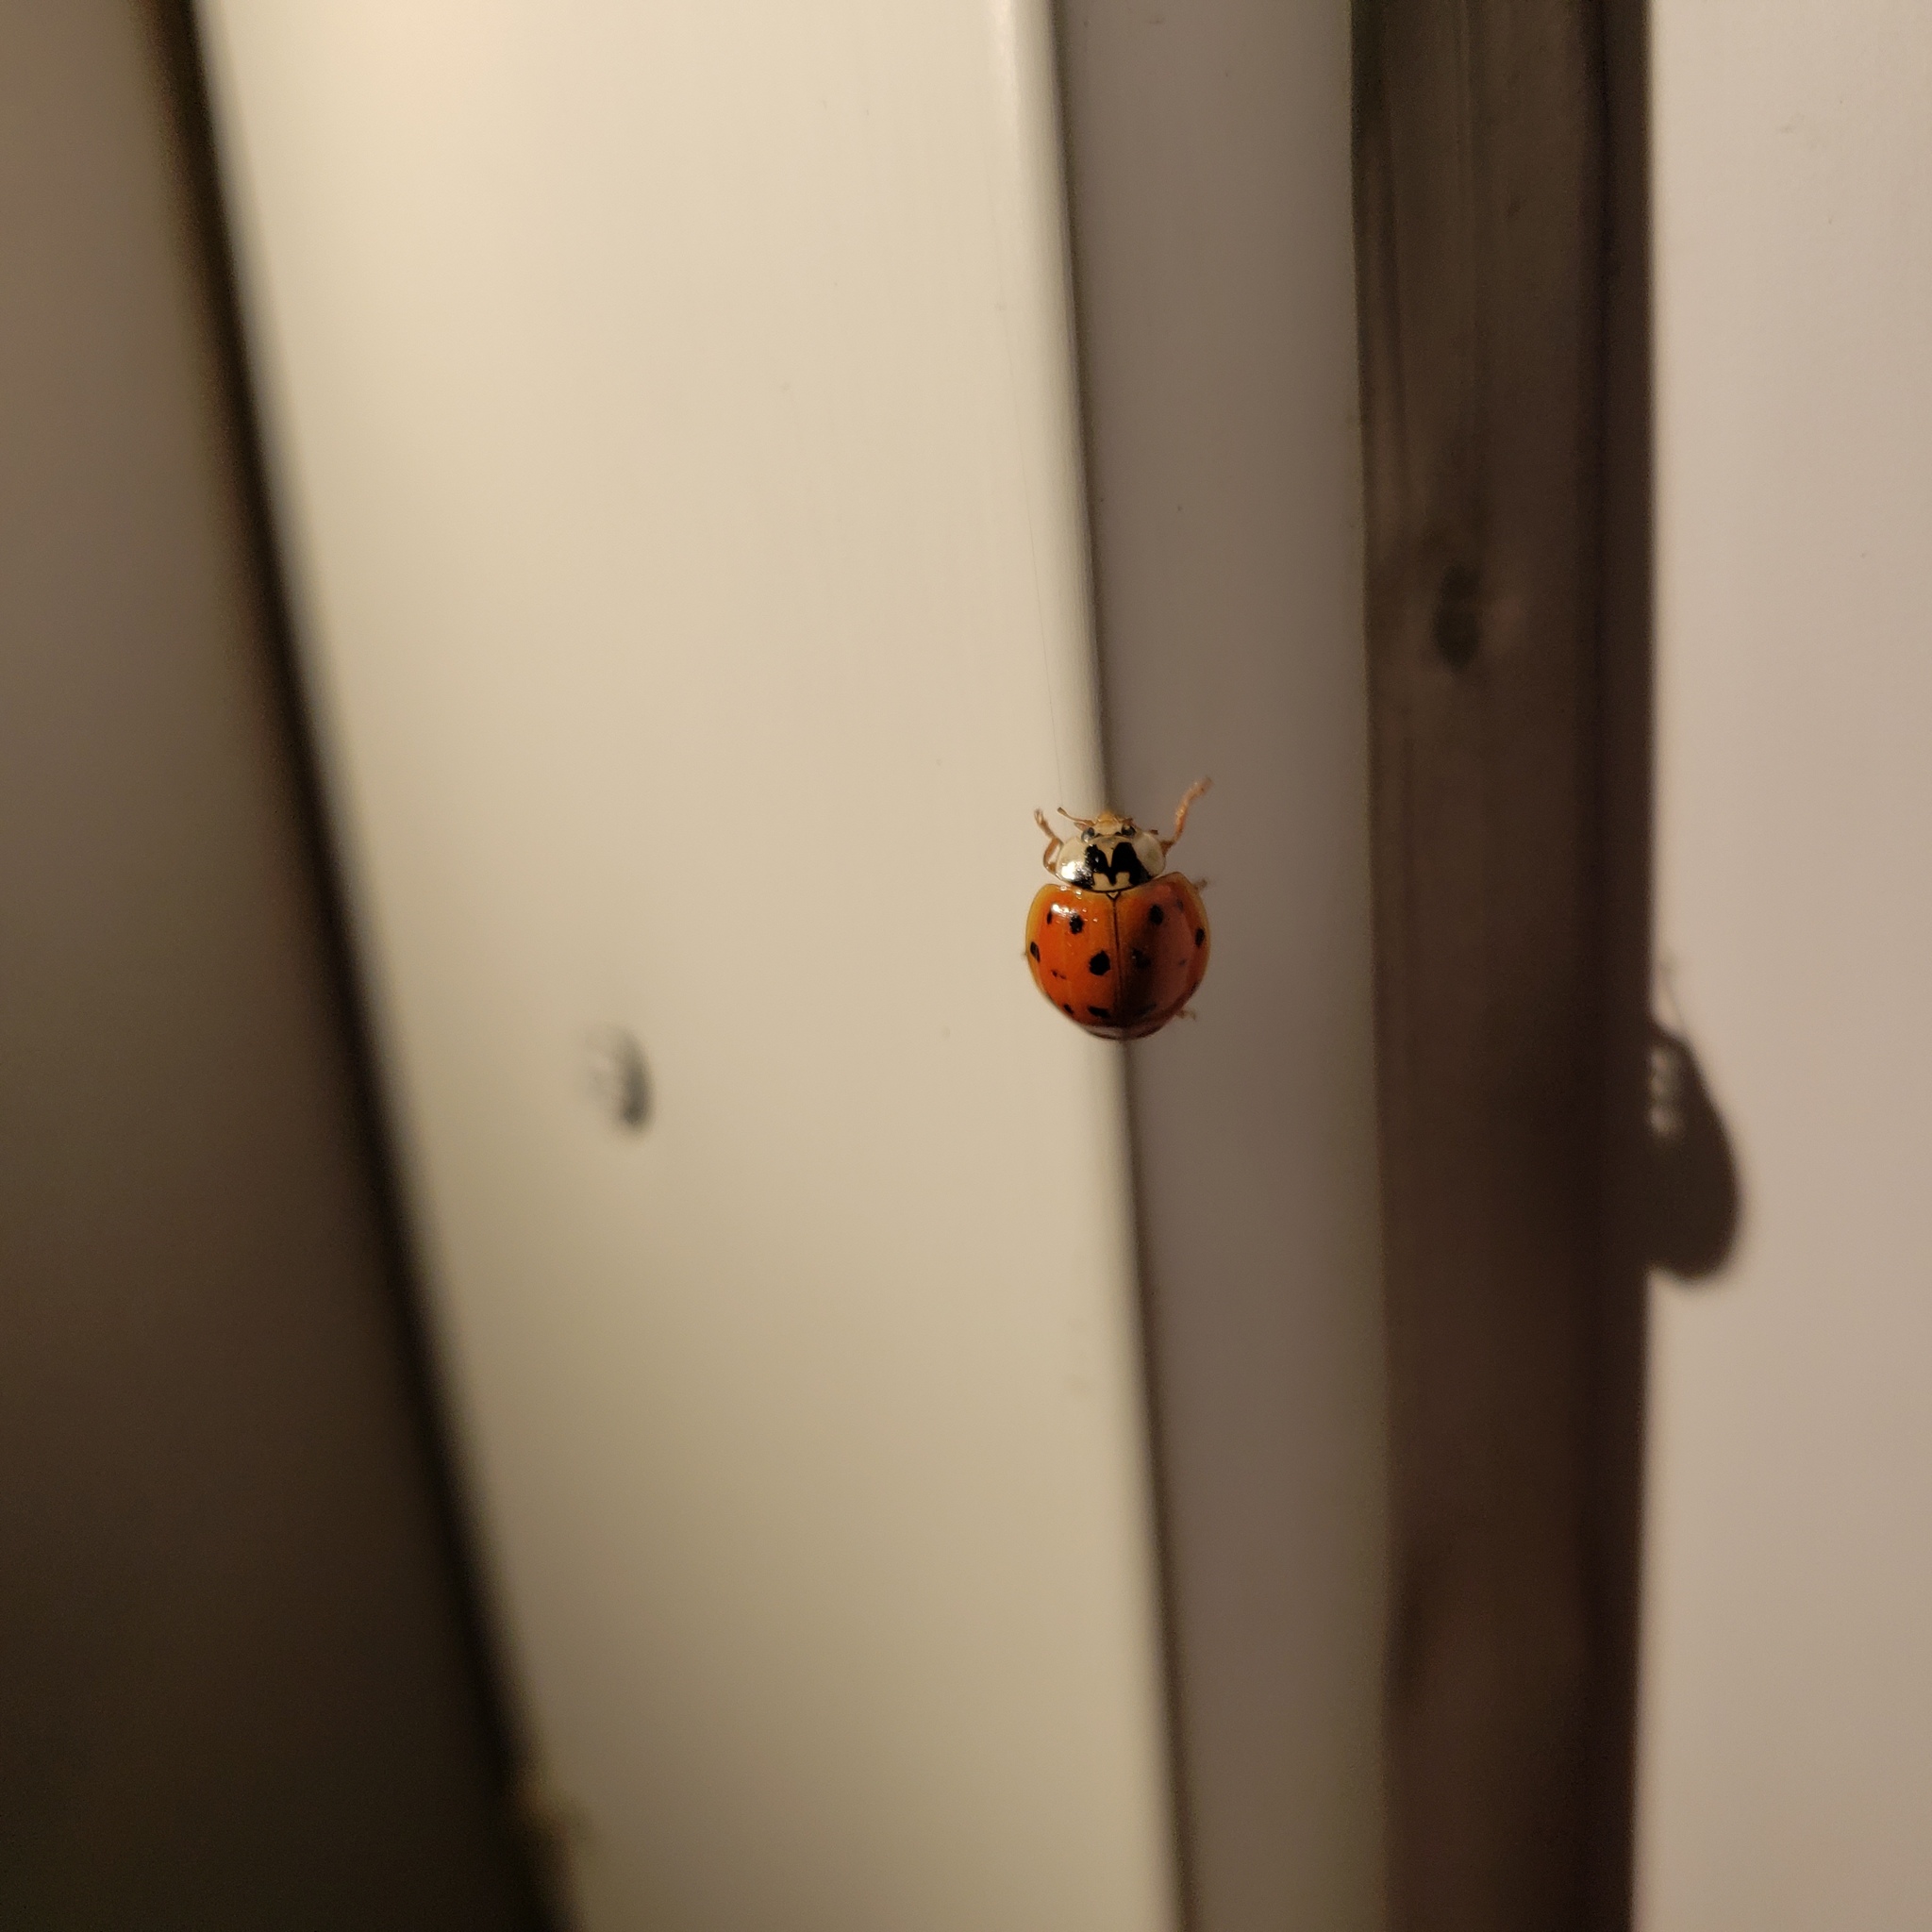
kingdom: Animalia
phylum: Arthropoda
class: Insecta
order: Coleoptera
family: Coccinellidae
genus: Harmonia
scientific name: Harmonia axyridis
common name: Harlequin ladybird
